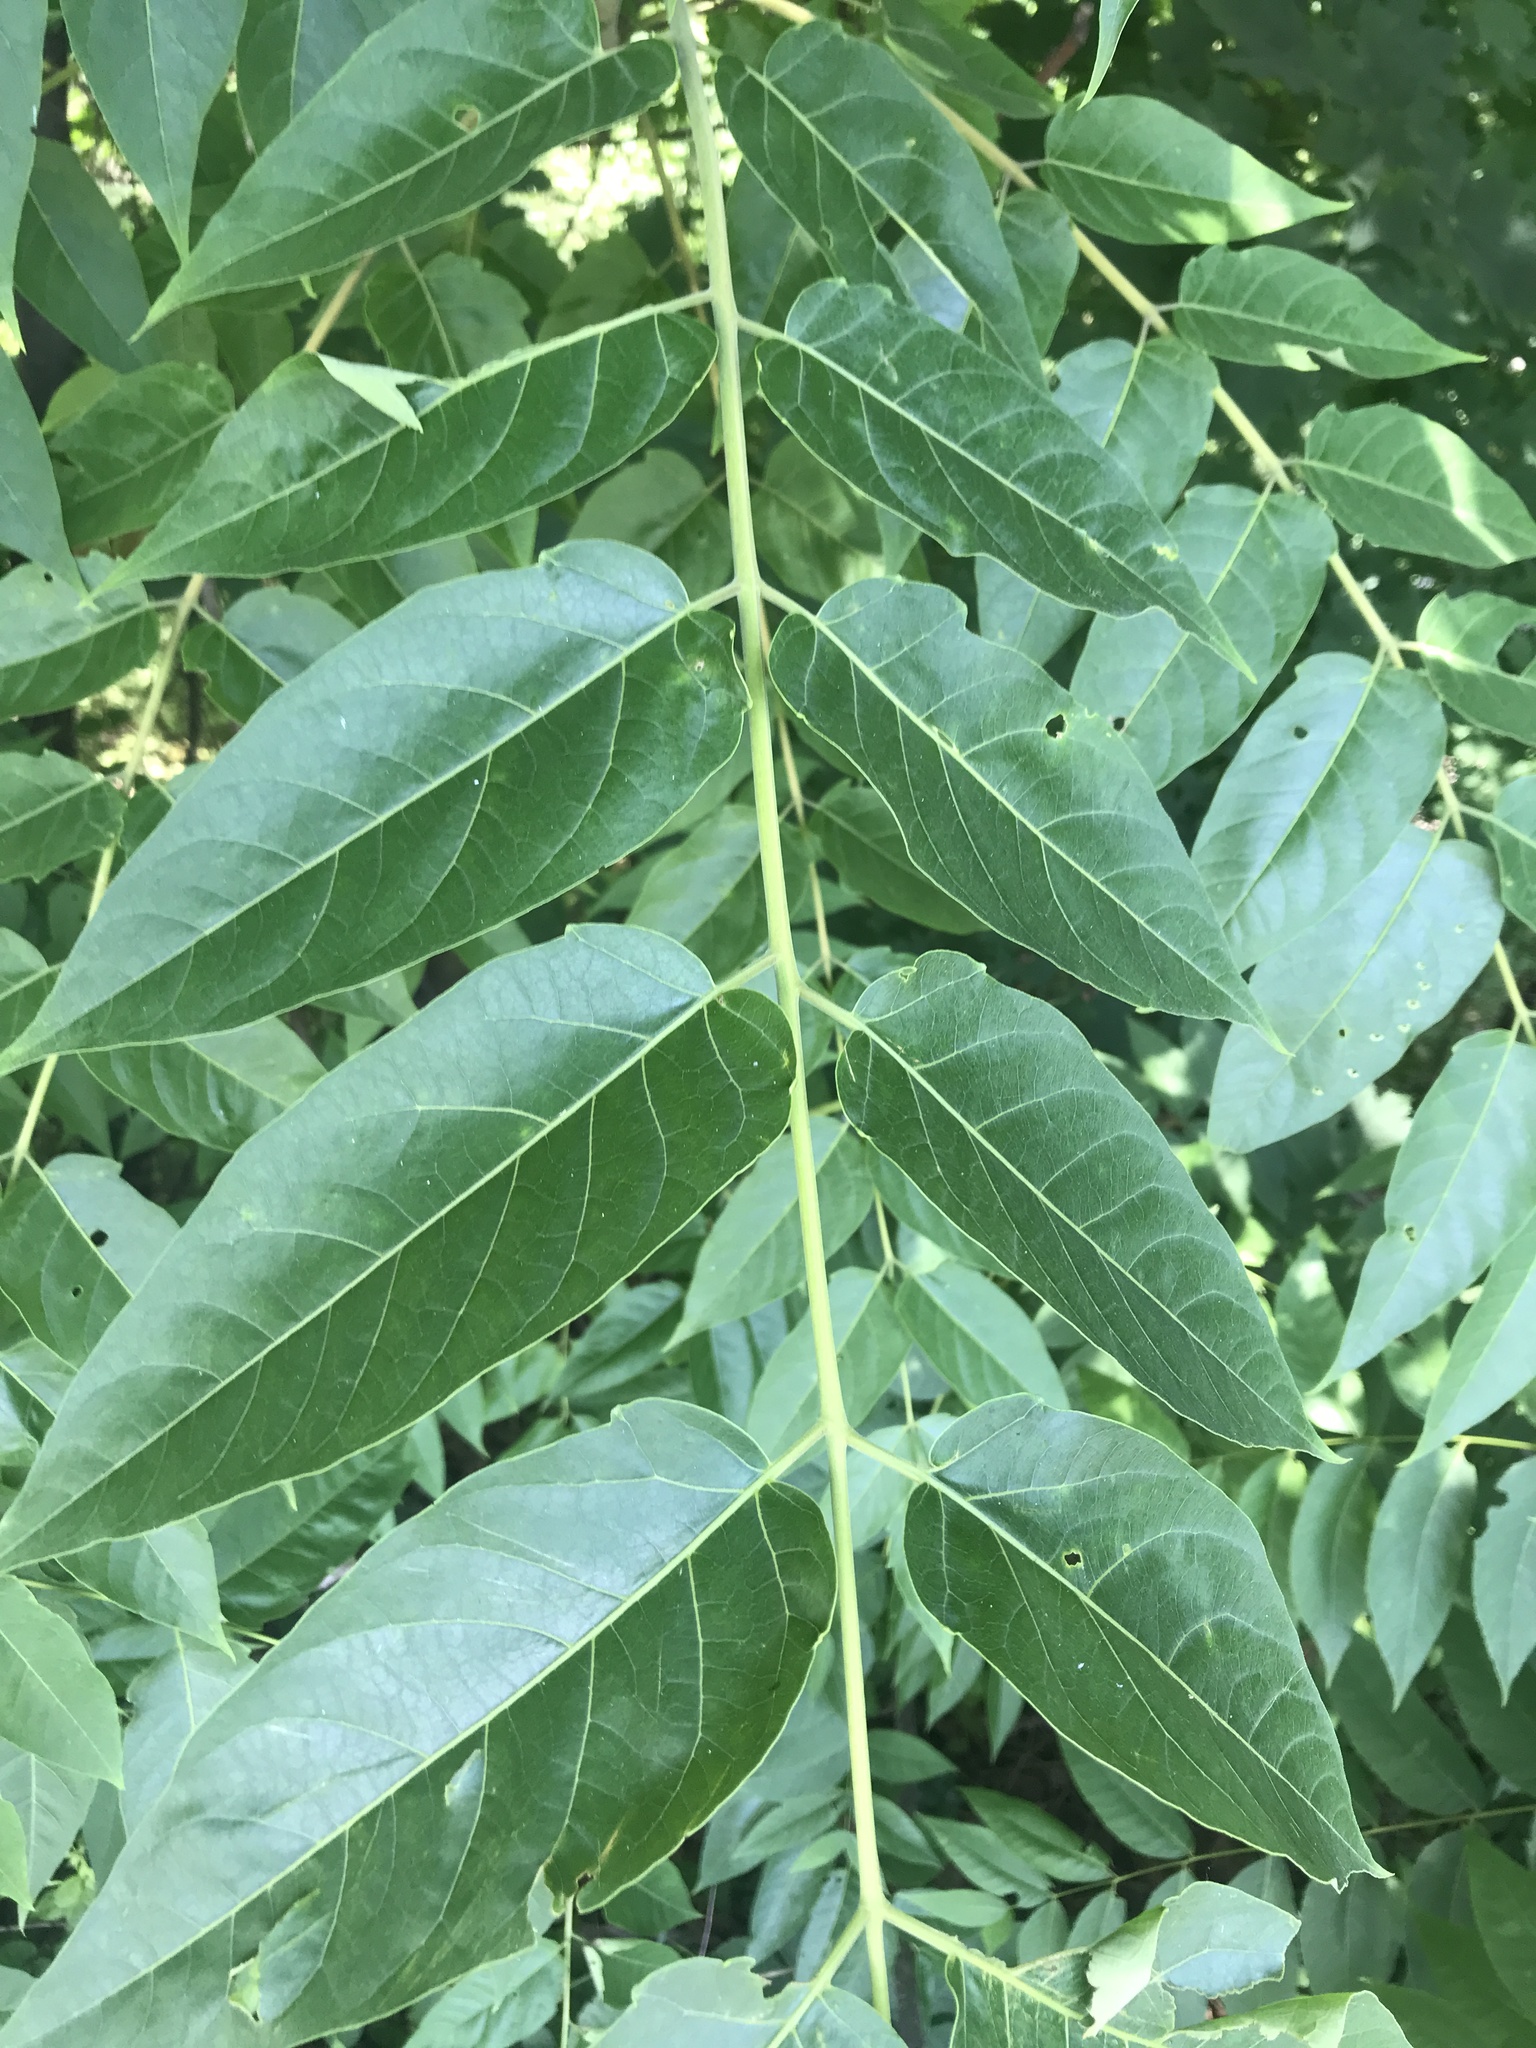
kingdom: Plantae
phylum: Tracheophyta
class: Magnoliopsida
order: Sapindales
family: Simaroubaceae
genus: Ailanthus
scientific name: Ailanthus altissima
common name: Tree-of-heaven
